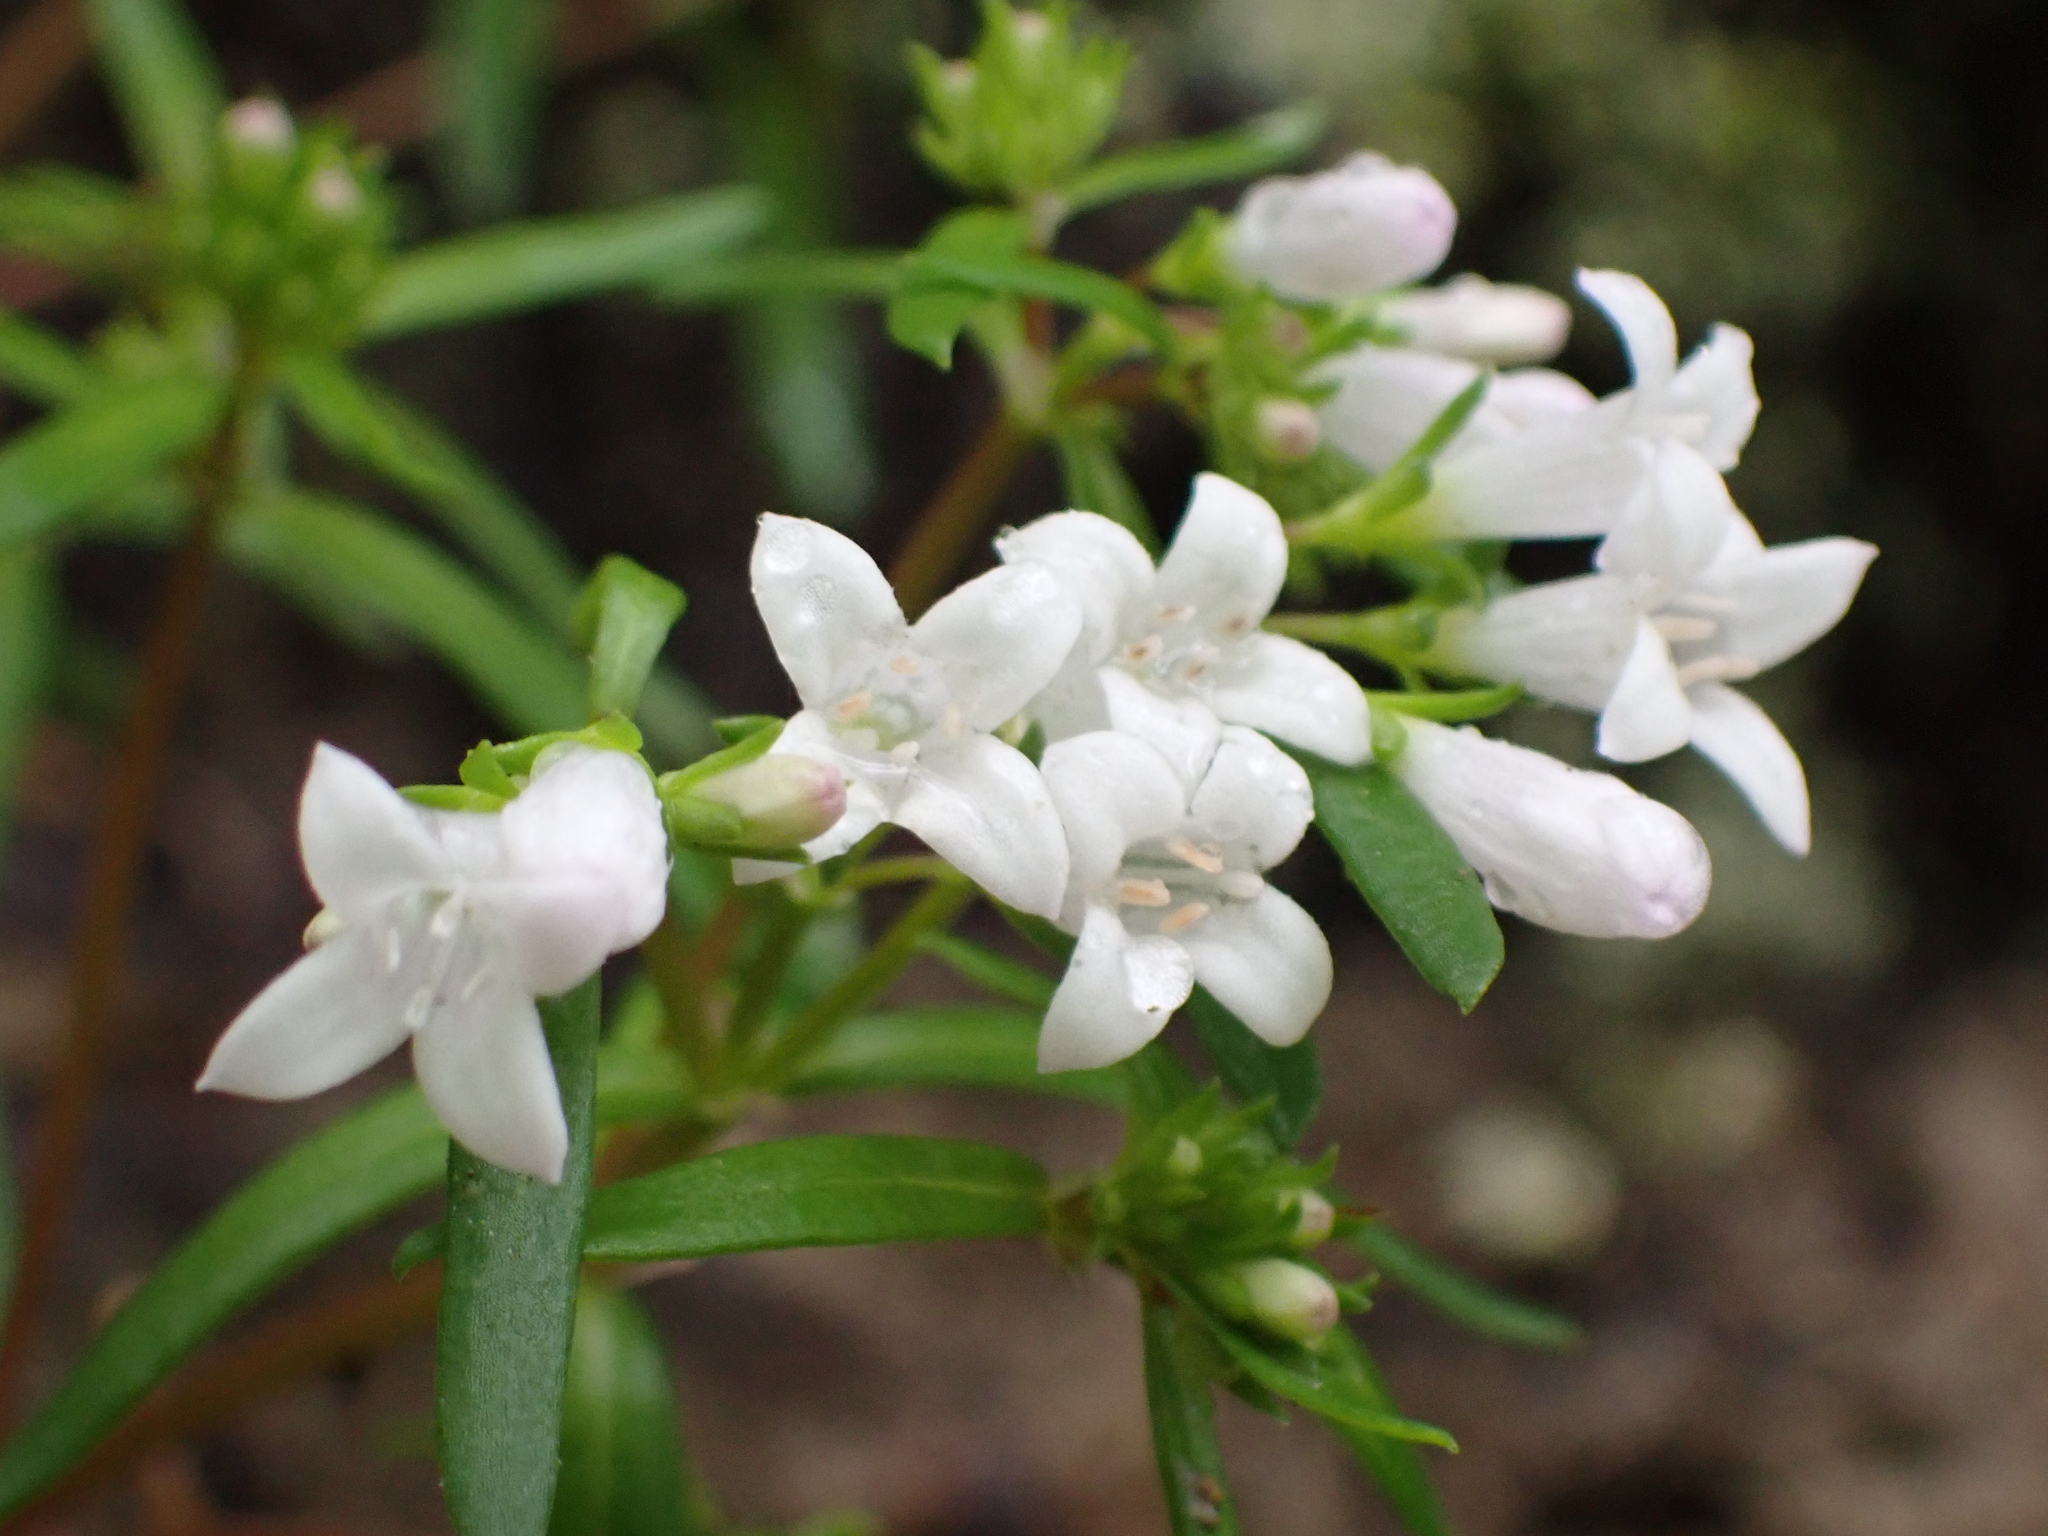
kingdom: Plantae
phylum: Tracheophyta
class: Magnoliopsida
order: Gentianales
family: Rubiaceae
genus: Houstonia
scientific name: Houstonia longifolia
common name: Long-leaved bluets
